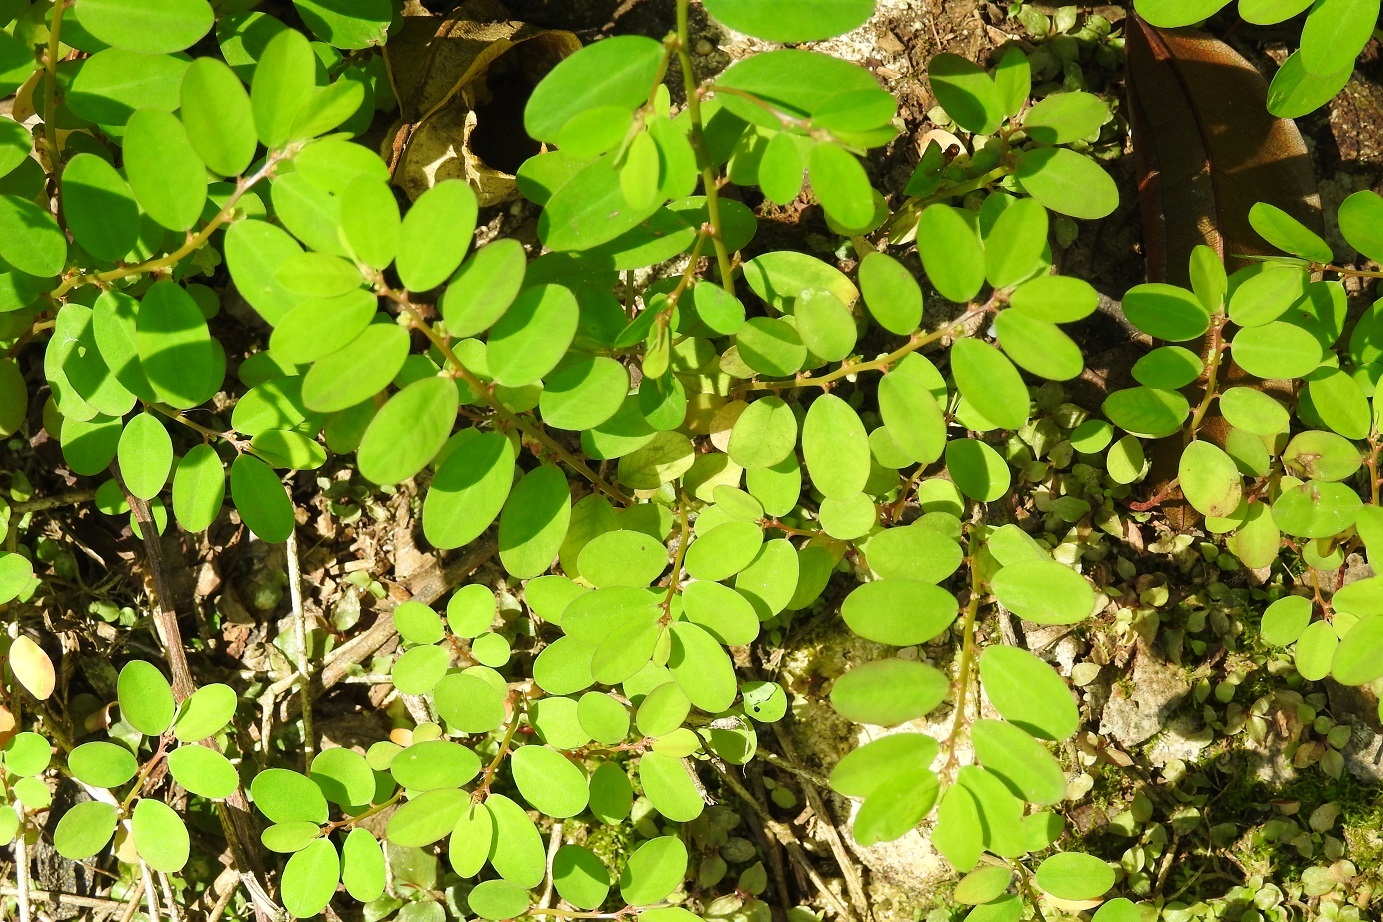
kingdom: Plantae
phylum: Tracheophyta
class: Magnoliopsida
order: Malpighiales
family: Phyllanthaceae
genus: Phyllanthus
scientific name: Phyllanthus niruri
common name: Niruri
